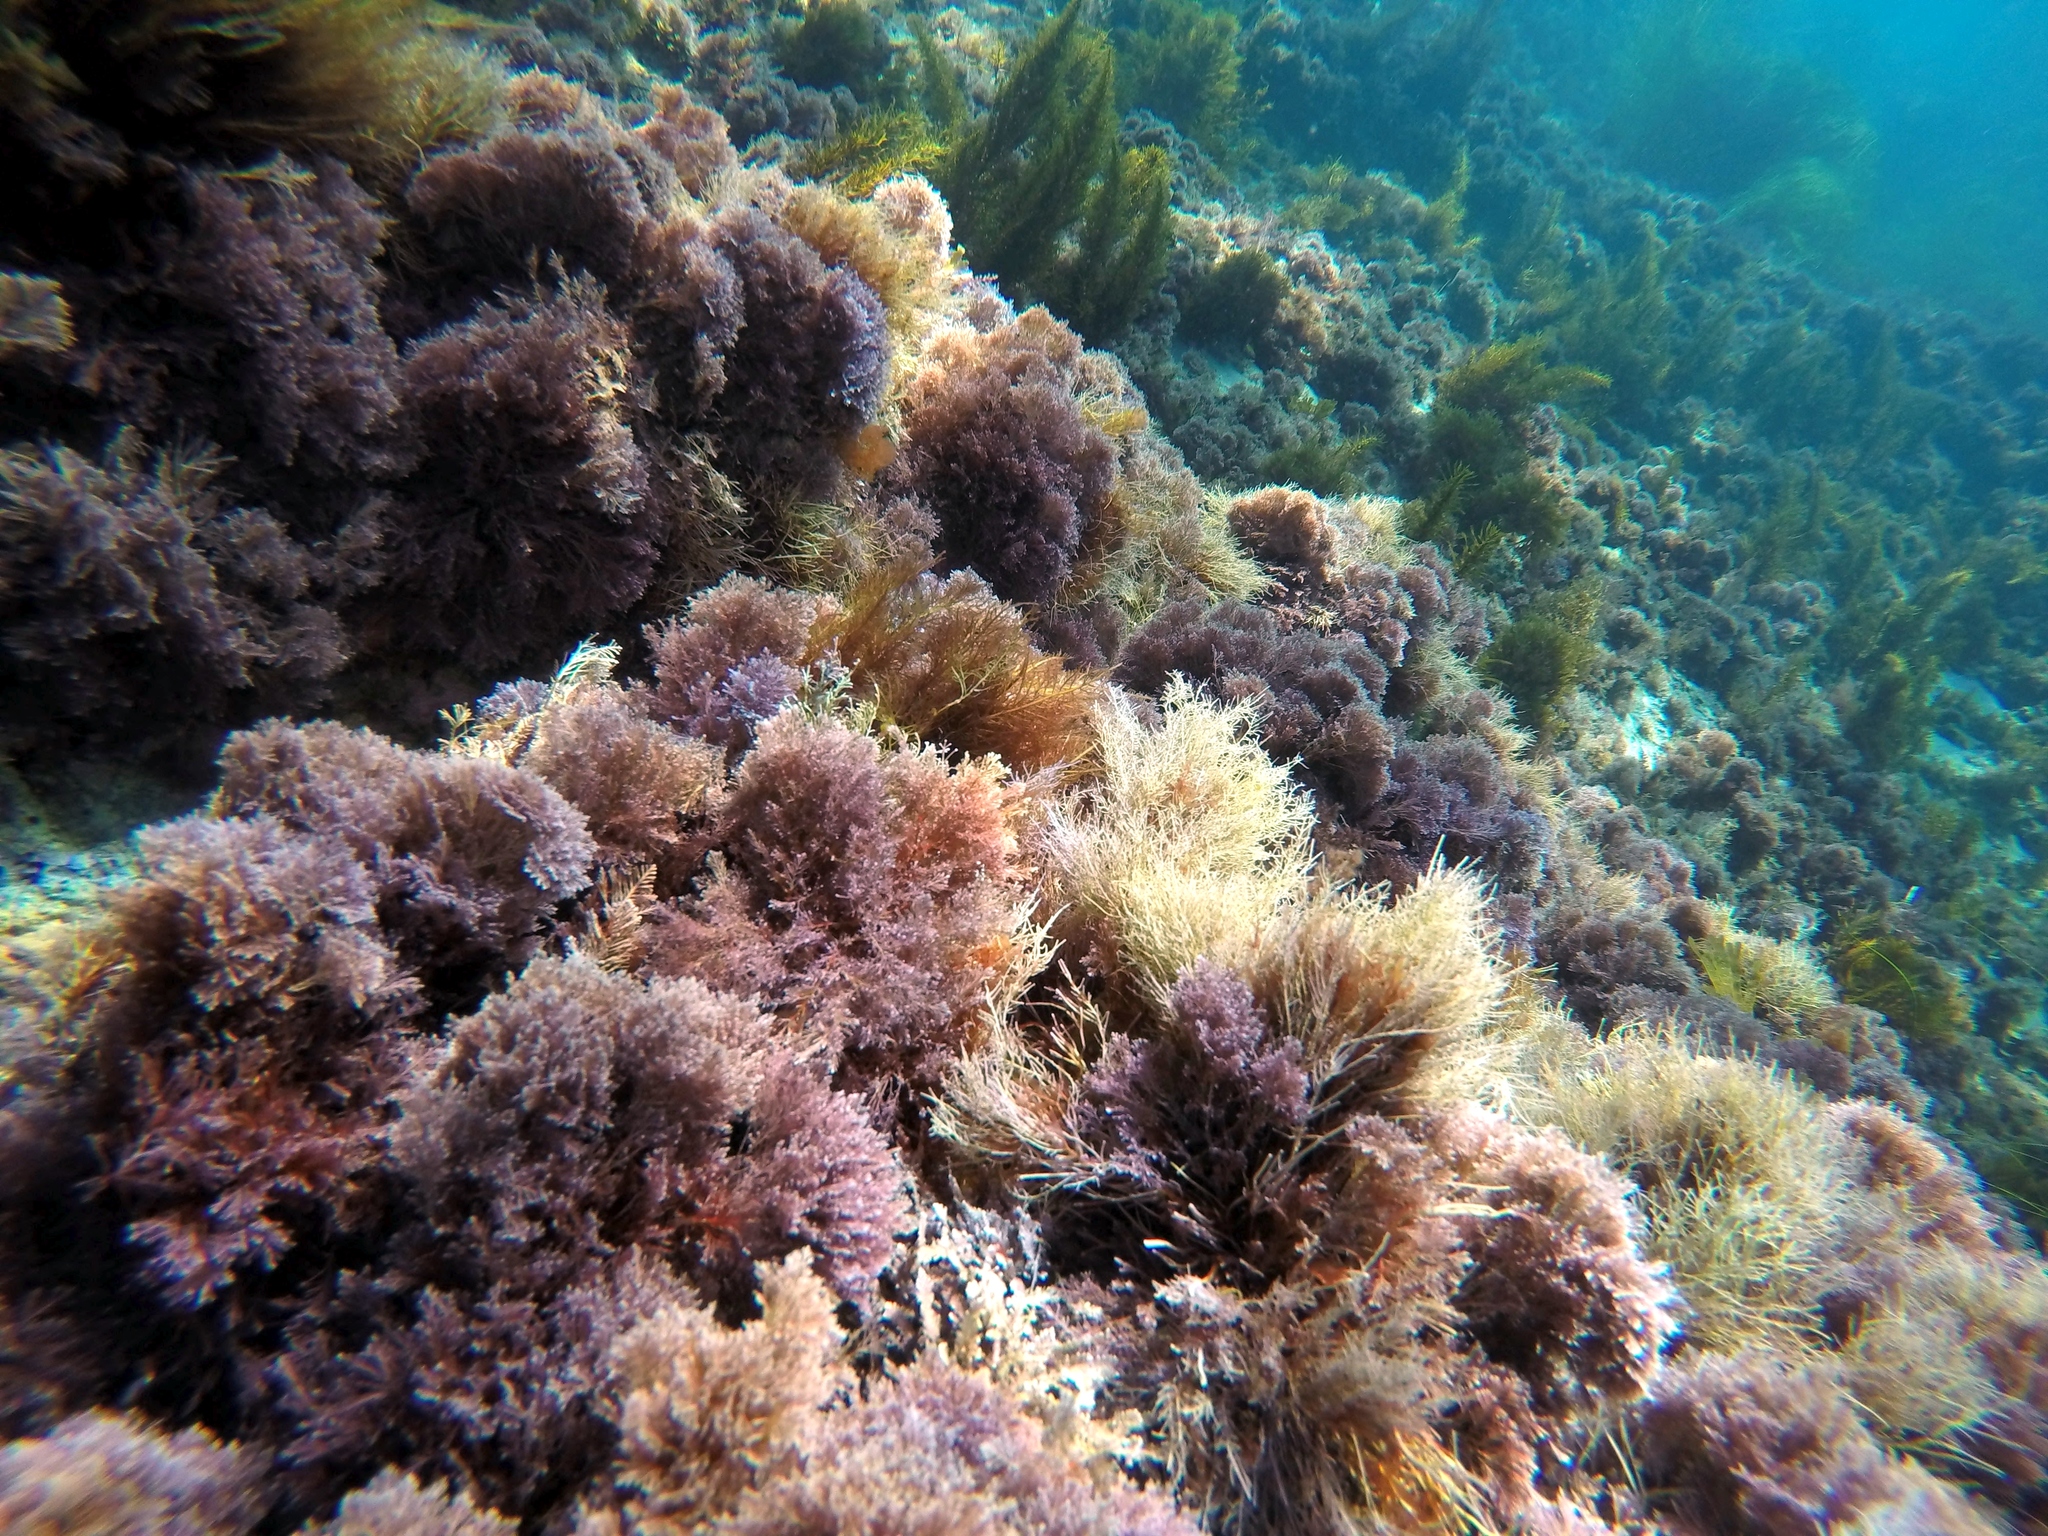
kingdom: Plantae
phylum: Rhodophyta
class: Florideophyceae
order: Corallinales
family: Lithophyllaceae
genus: Lithothrix
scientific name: Lithothrix aspergillum
